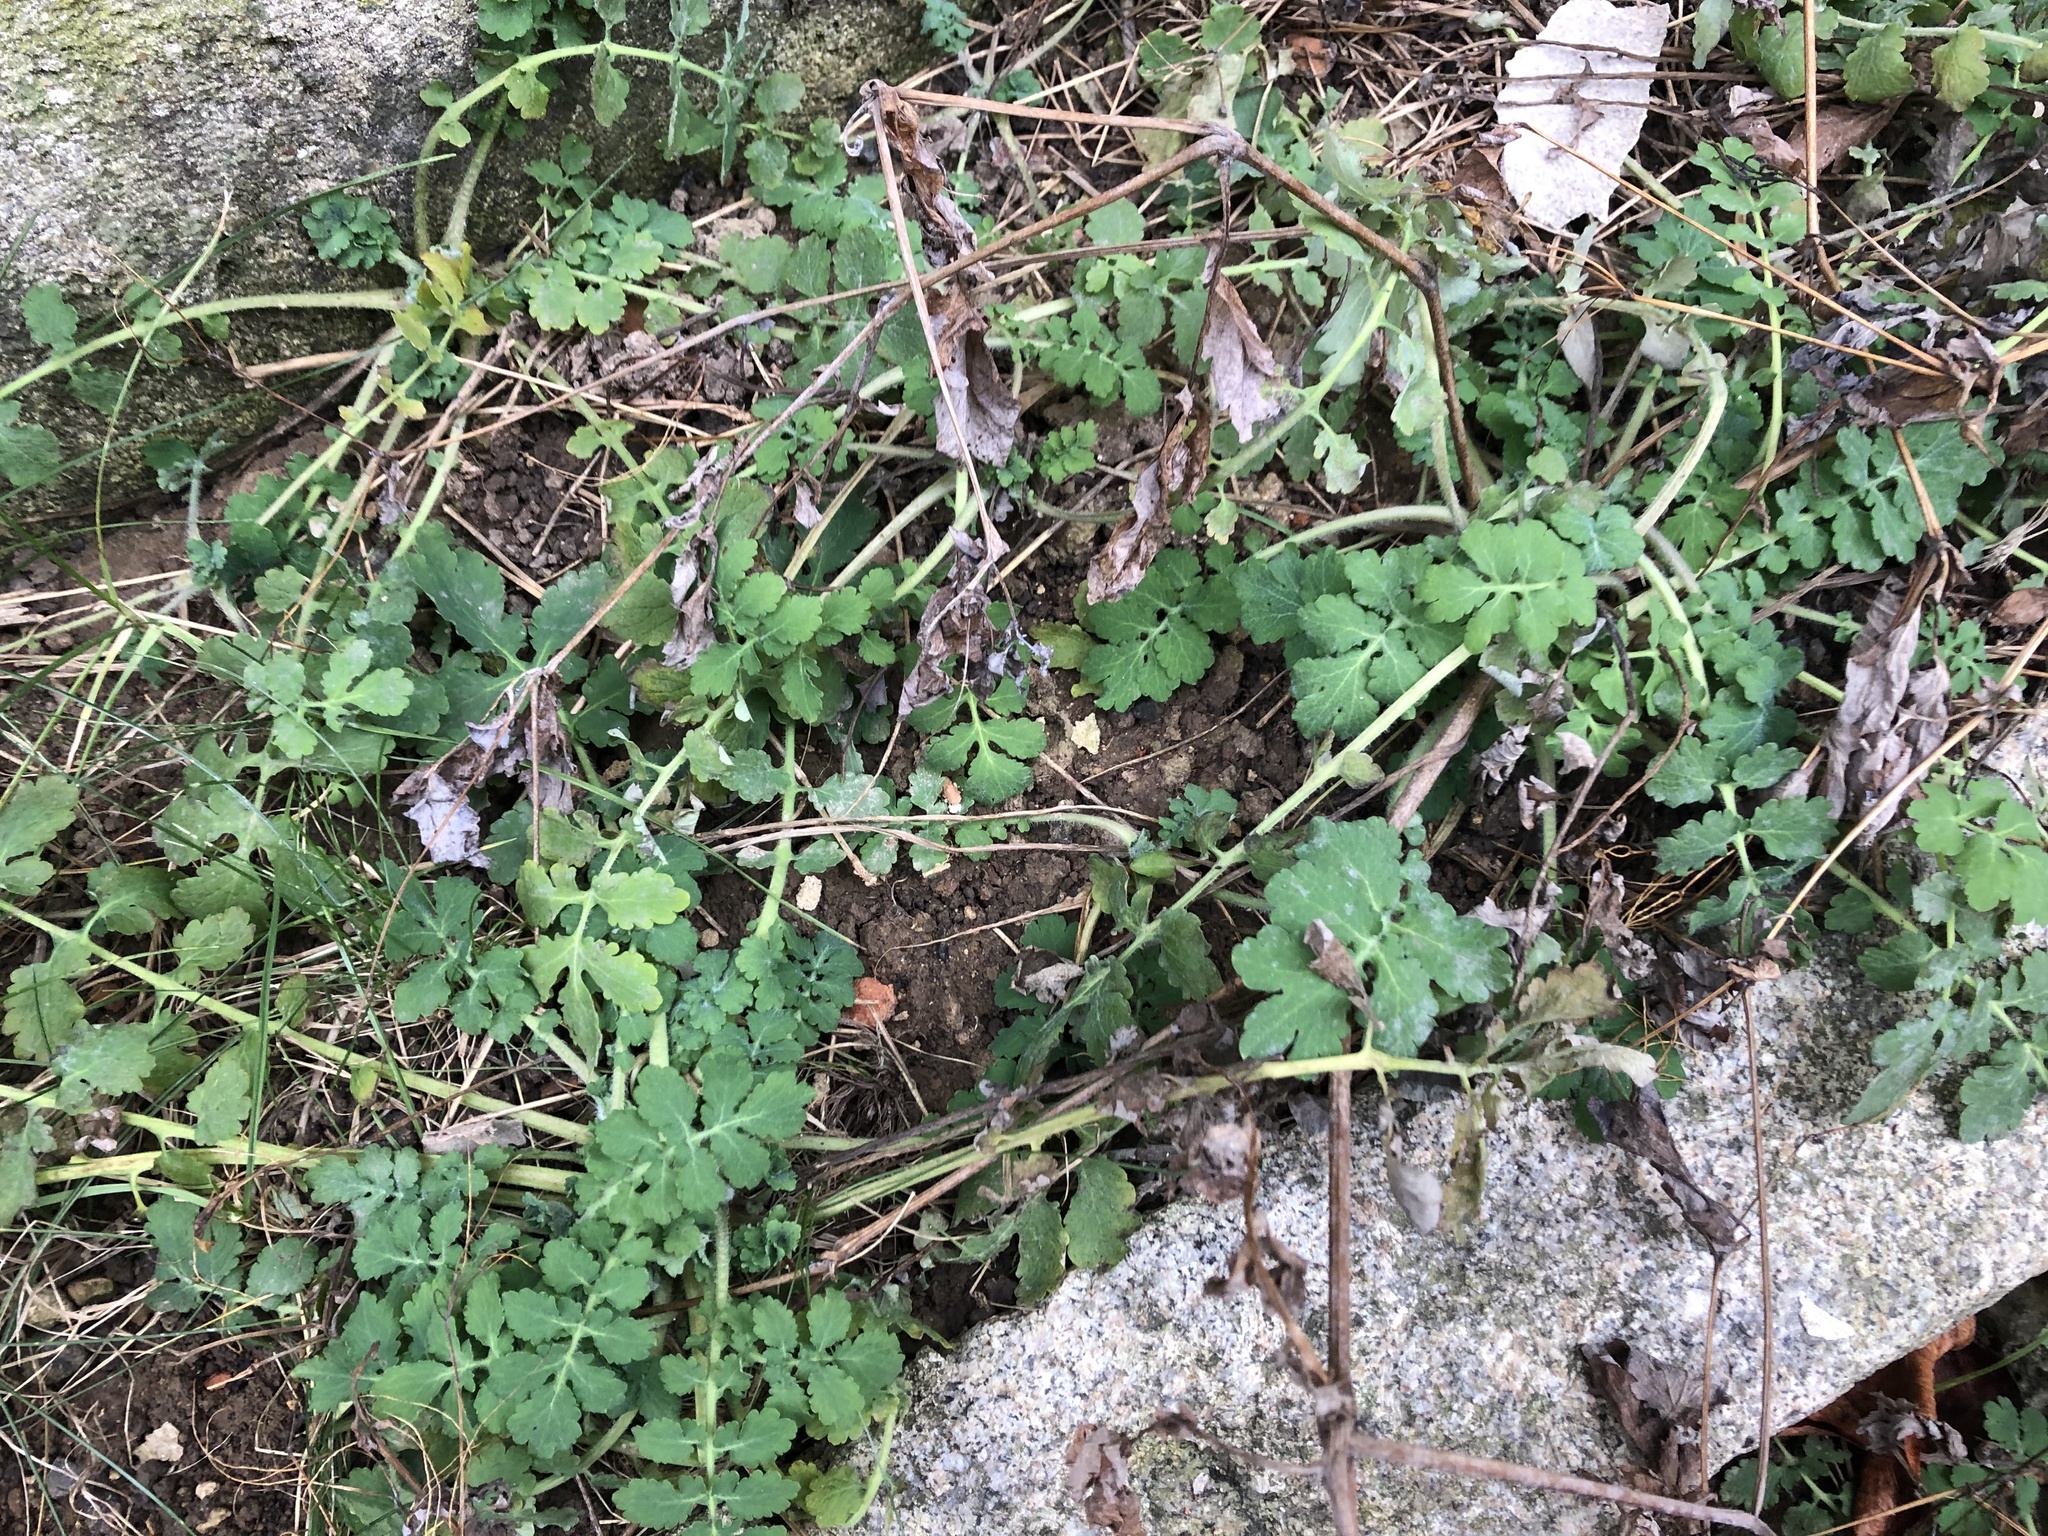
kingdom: Plantae
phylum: Tracheophyta
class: Magnoliopsida
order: Ranunculales
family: Papaveraceae
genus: Chelidonium
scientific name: Chelidonium majus
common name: Greater celandine
